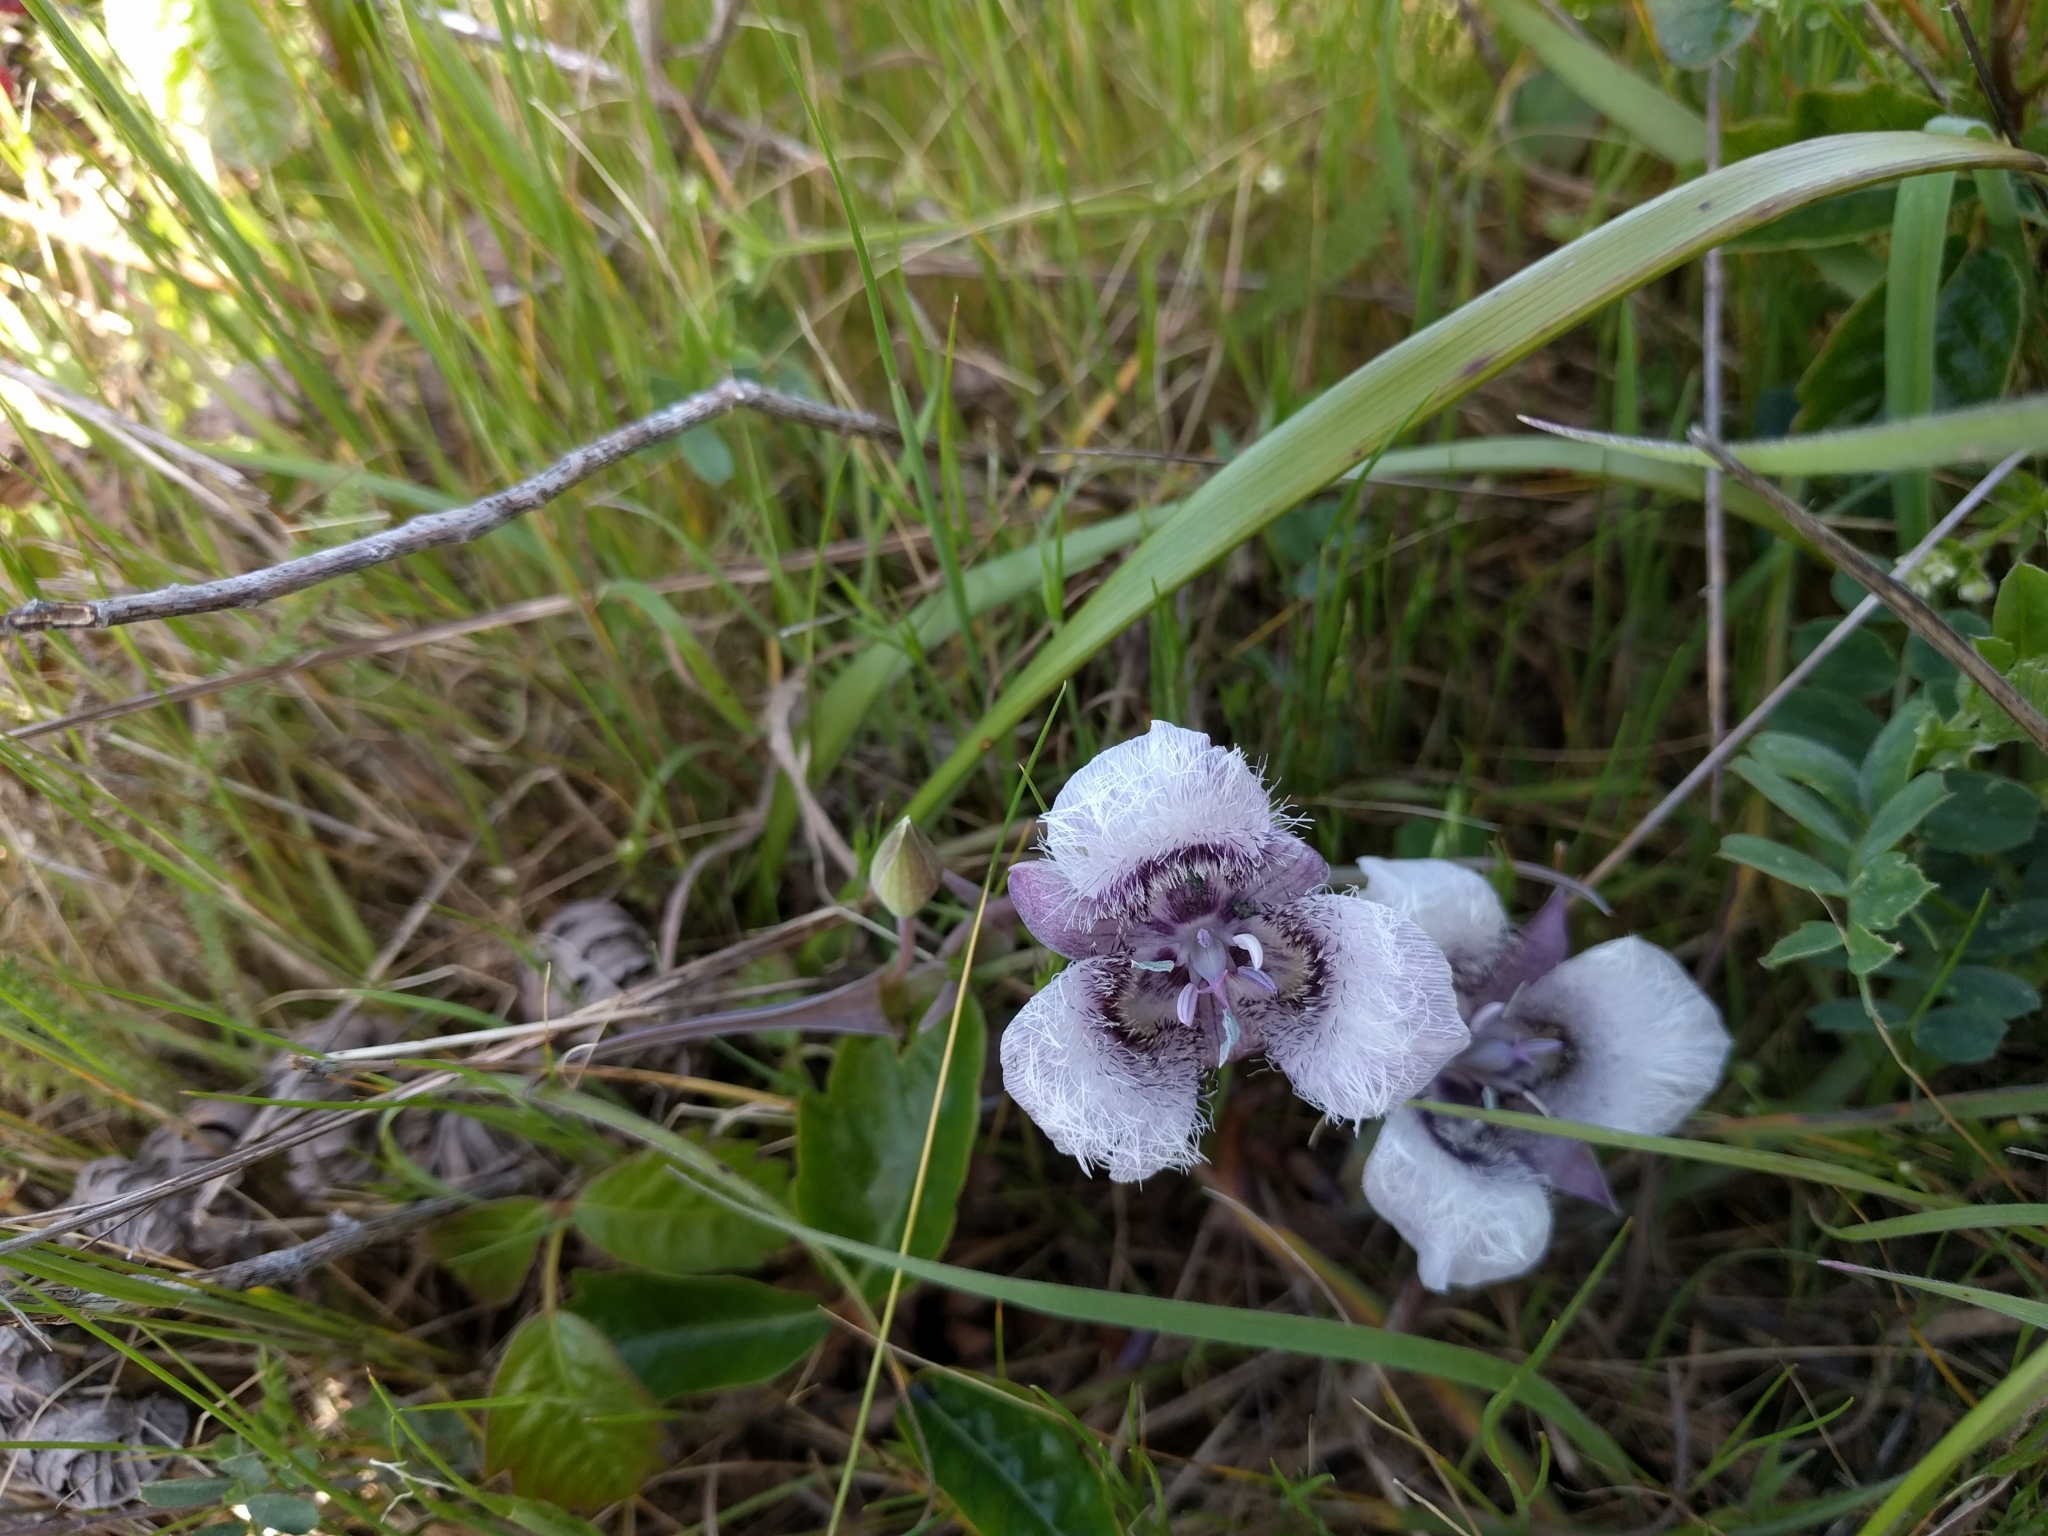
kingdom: Plantae
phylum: Tracheophyta
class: Liliopsida
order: Liliales
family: Liliaceae
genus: Calochortus
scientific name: Calochortus tolmiei
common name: Pussy-ears
